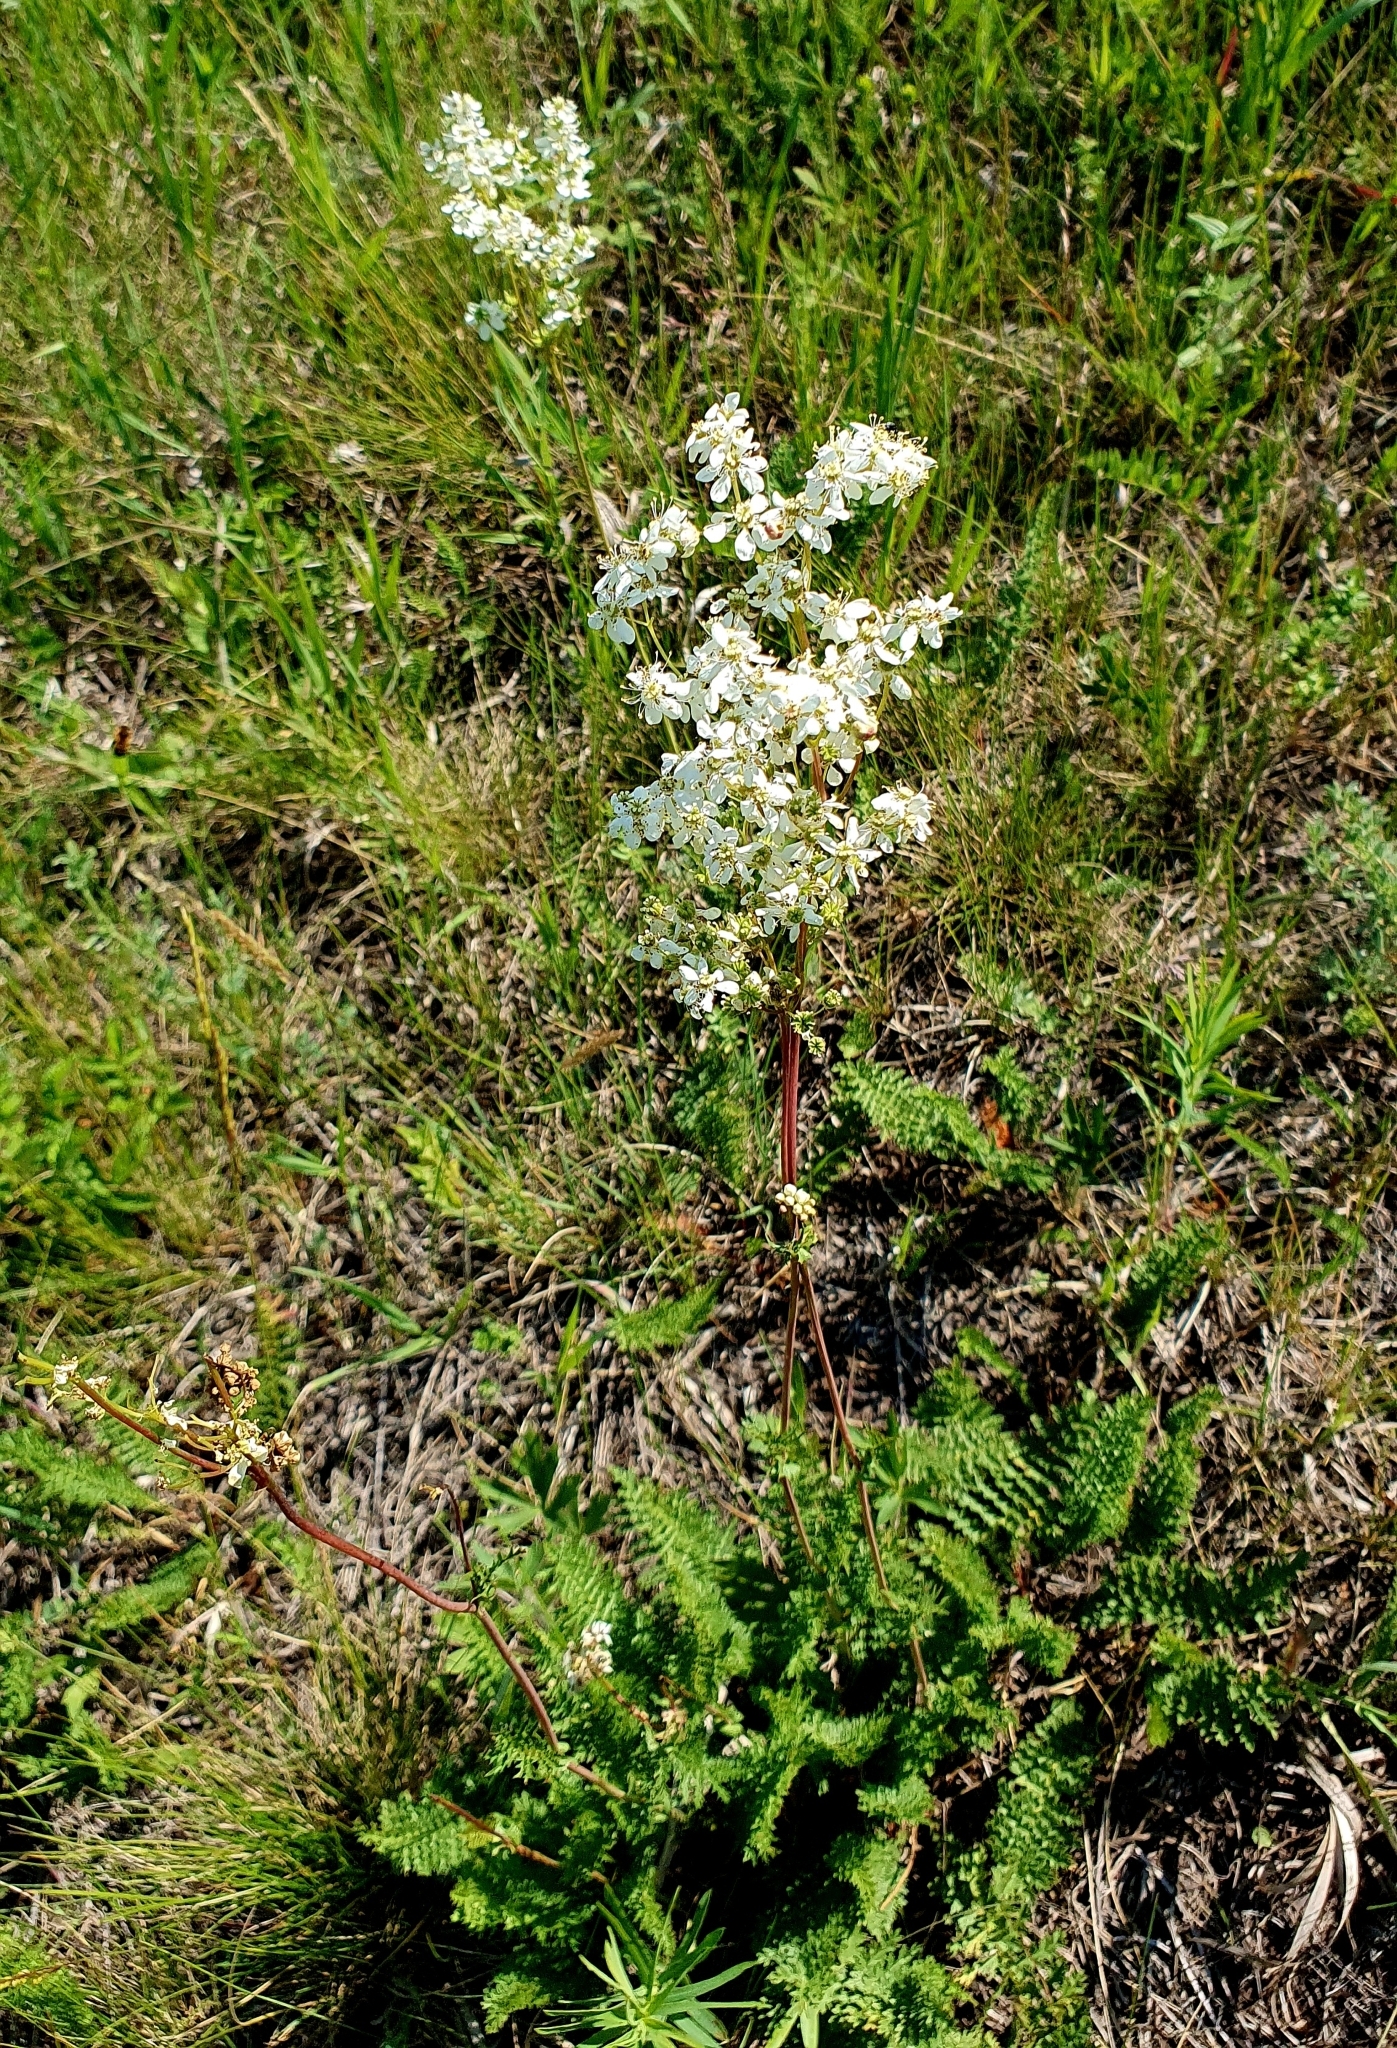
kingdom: Plantae
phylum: Tracheophyta
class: Magnoliopsida
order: Rosales
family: Rosaceae
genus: Filipendula
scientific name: Filipendula vulgaris
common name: Dropwort
